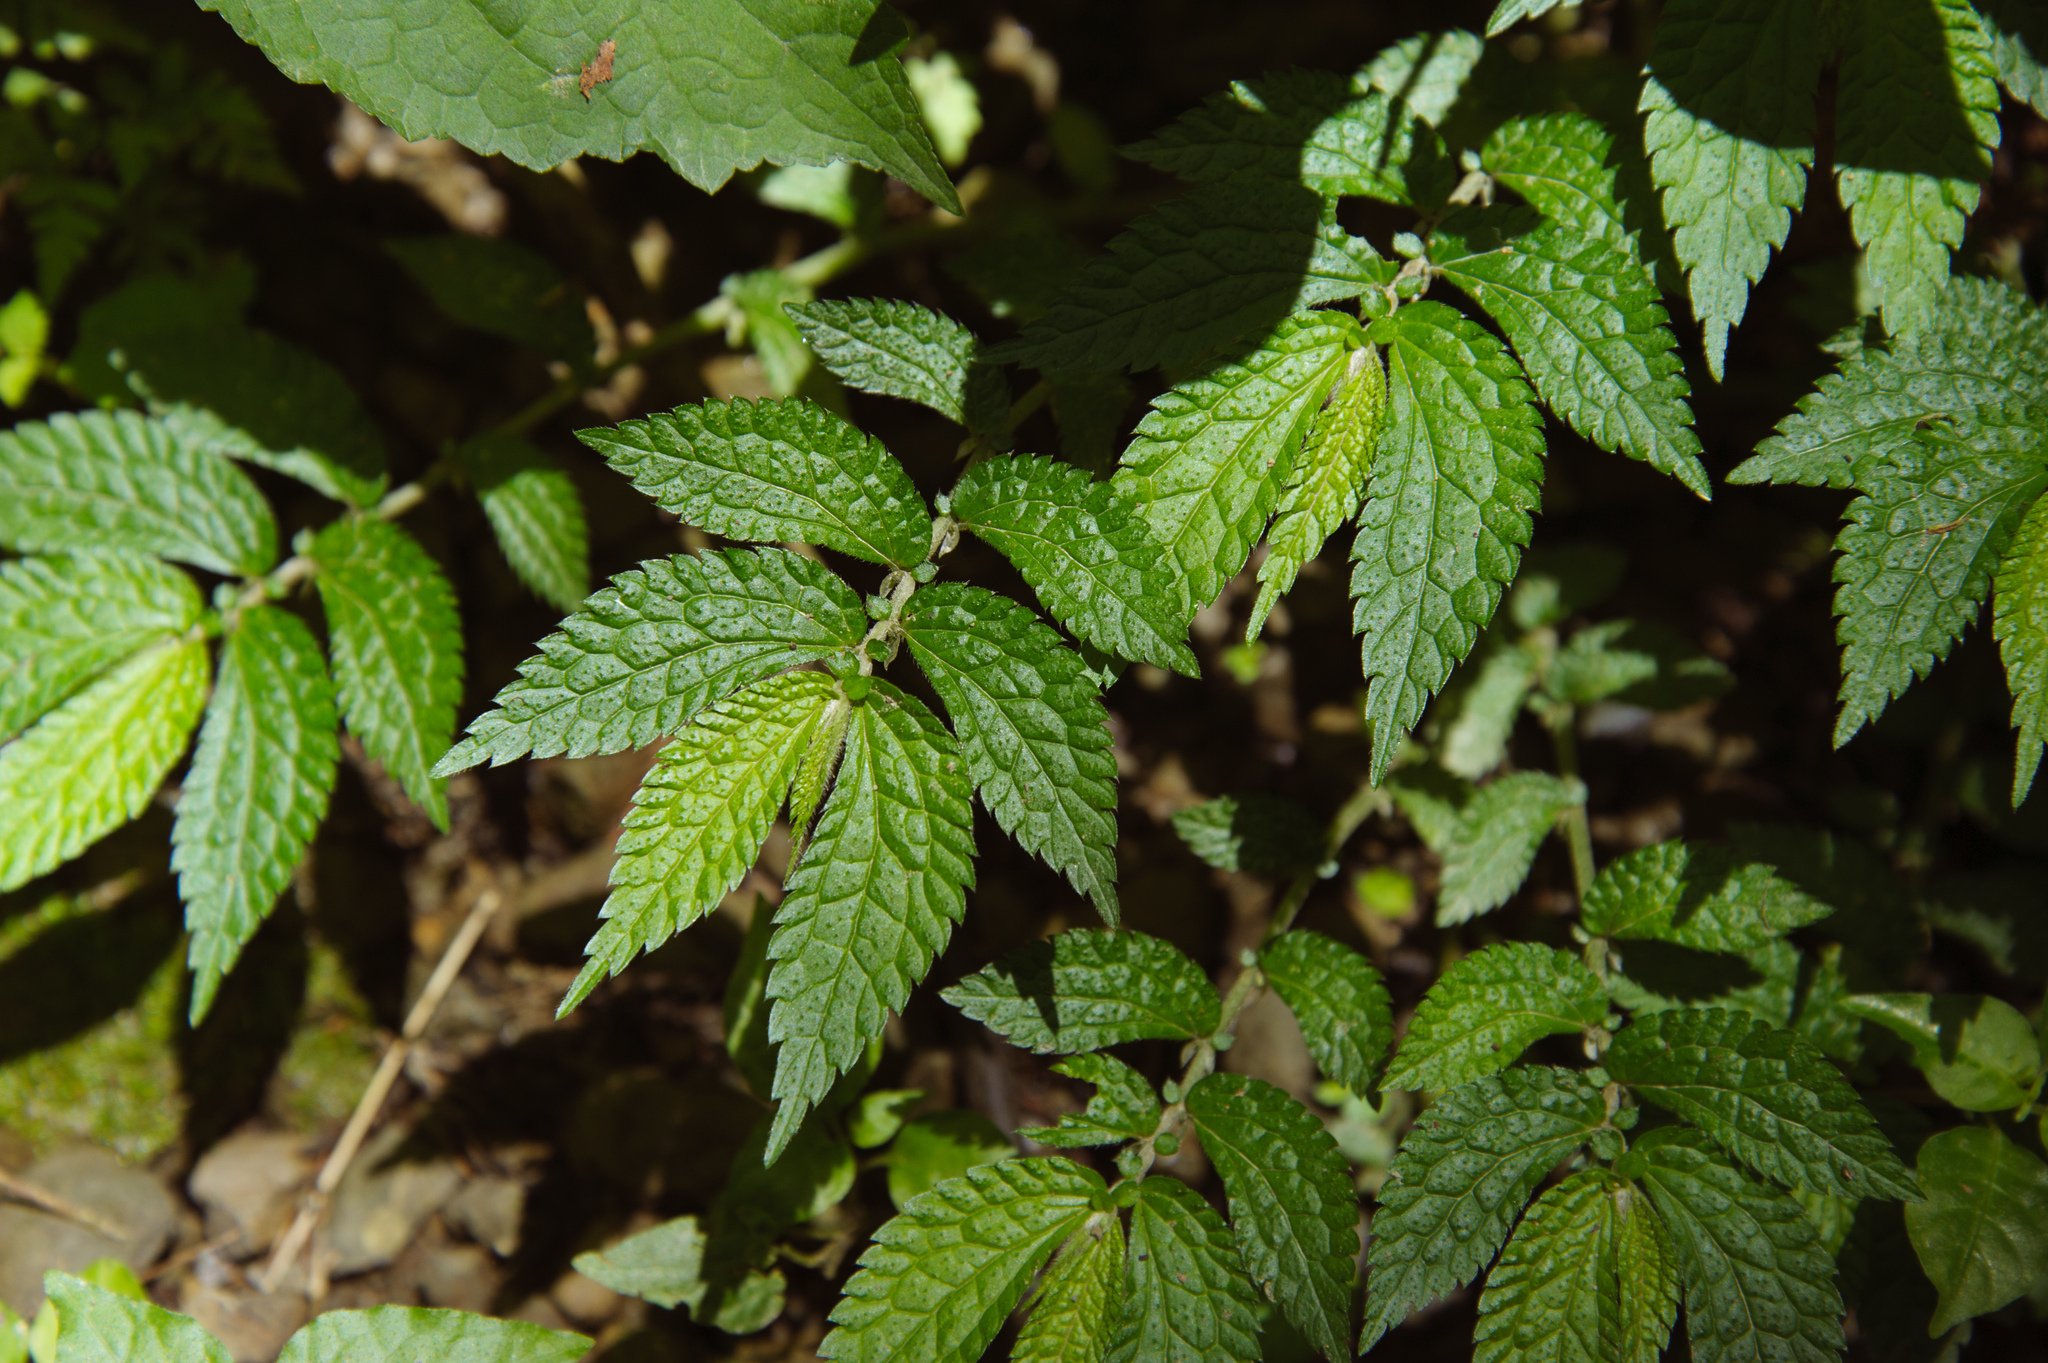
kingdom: Plantae
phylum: Tracheophyta
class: Magnoliopsida
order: Rosales
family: Urticaceae
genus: Elatostema
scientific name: Elatostema parvum
